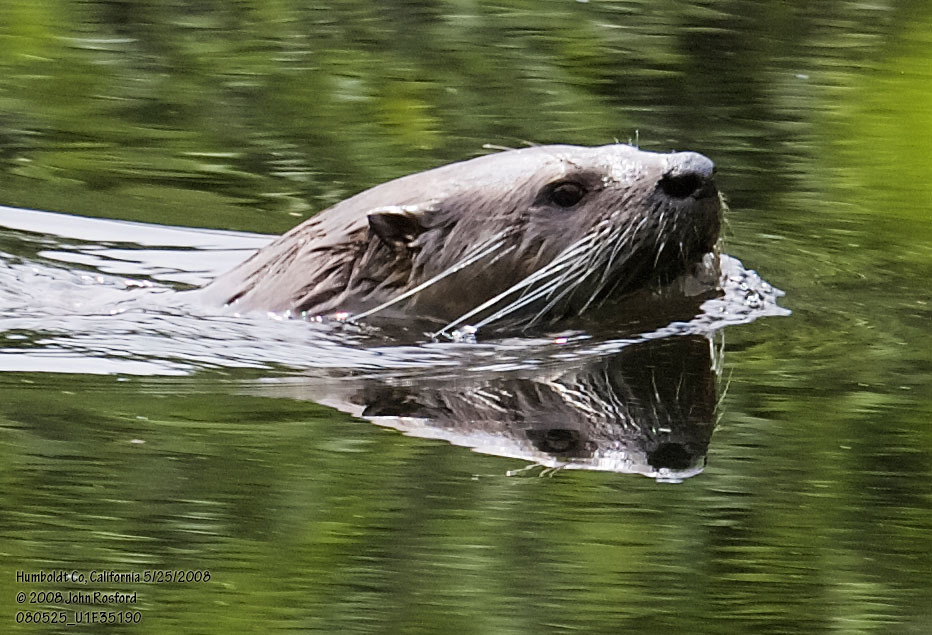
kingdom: Animalia
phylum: Chordata
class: Mammalia
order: Carnivora
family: Mustelidae
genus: Lontra
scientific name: Lontra canadensis
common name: North american river otter
